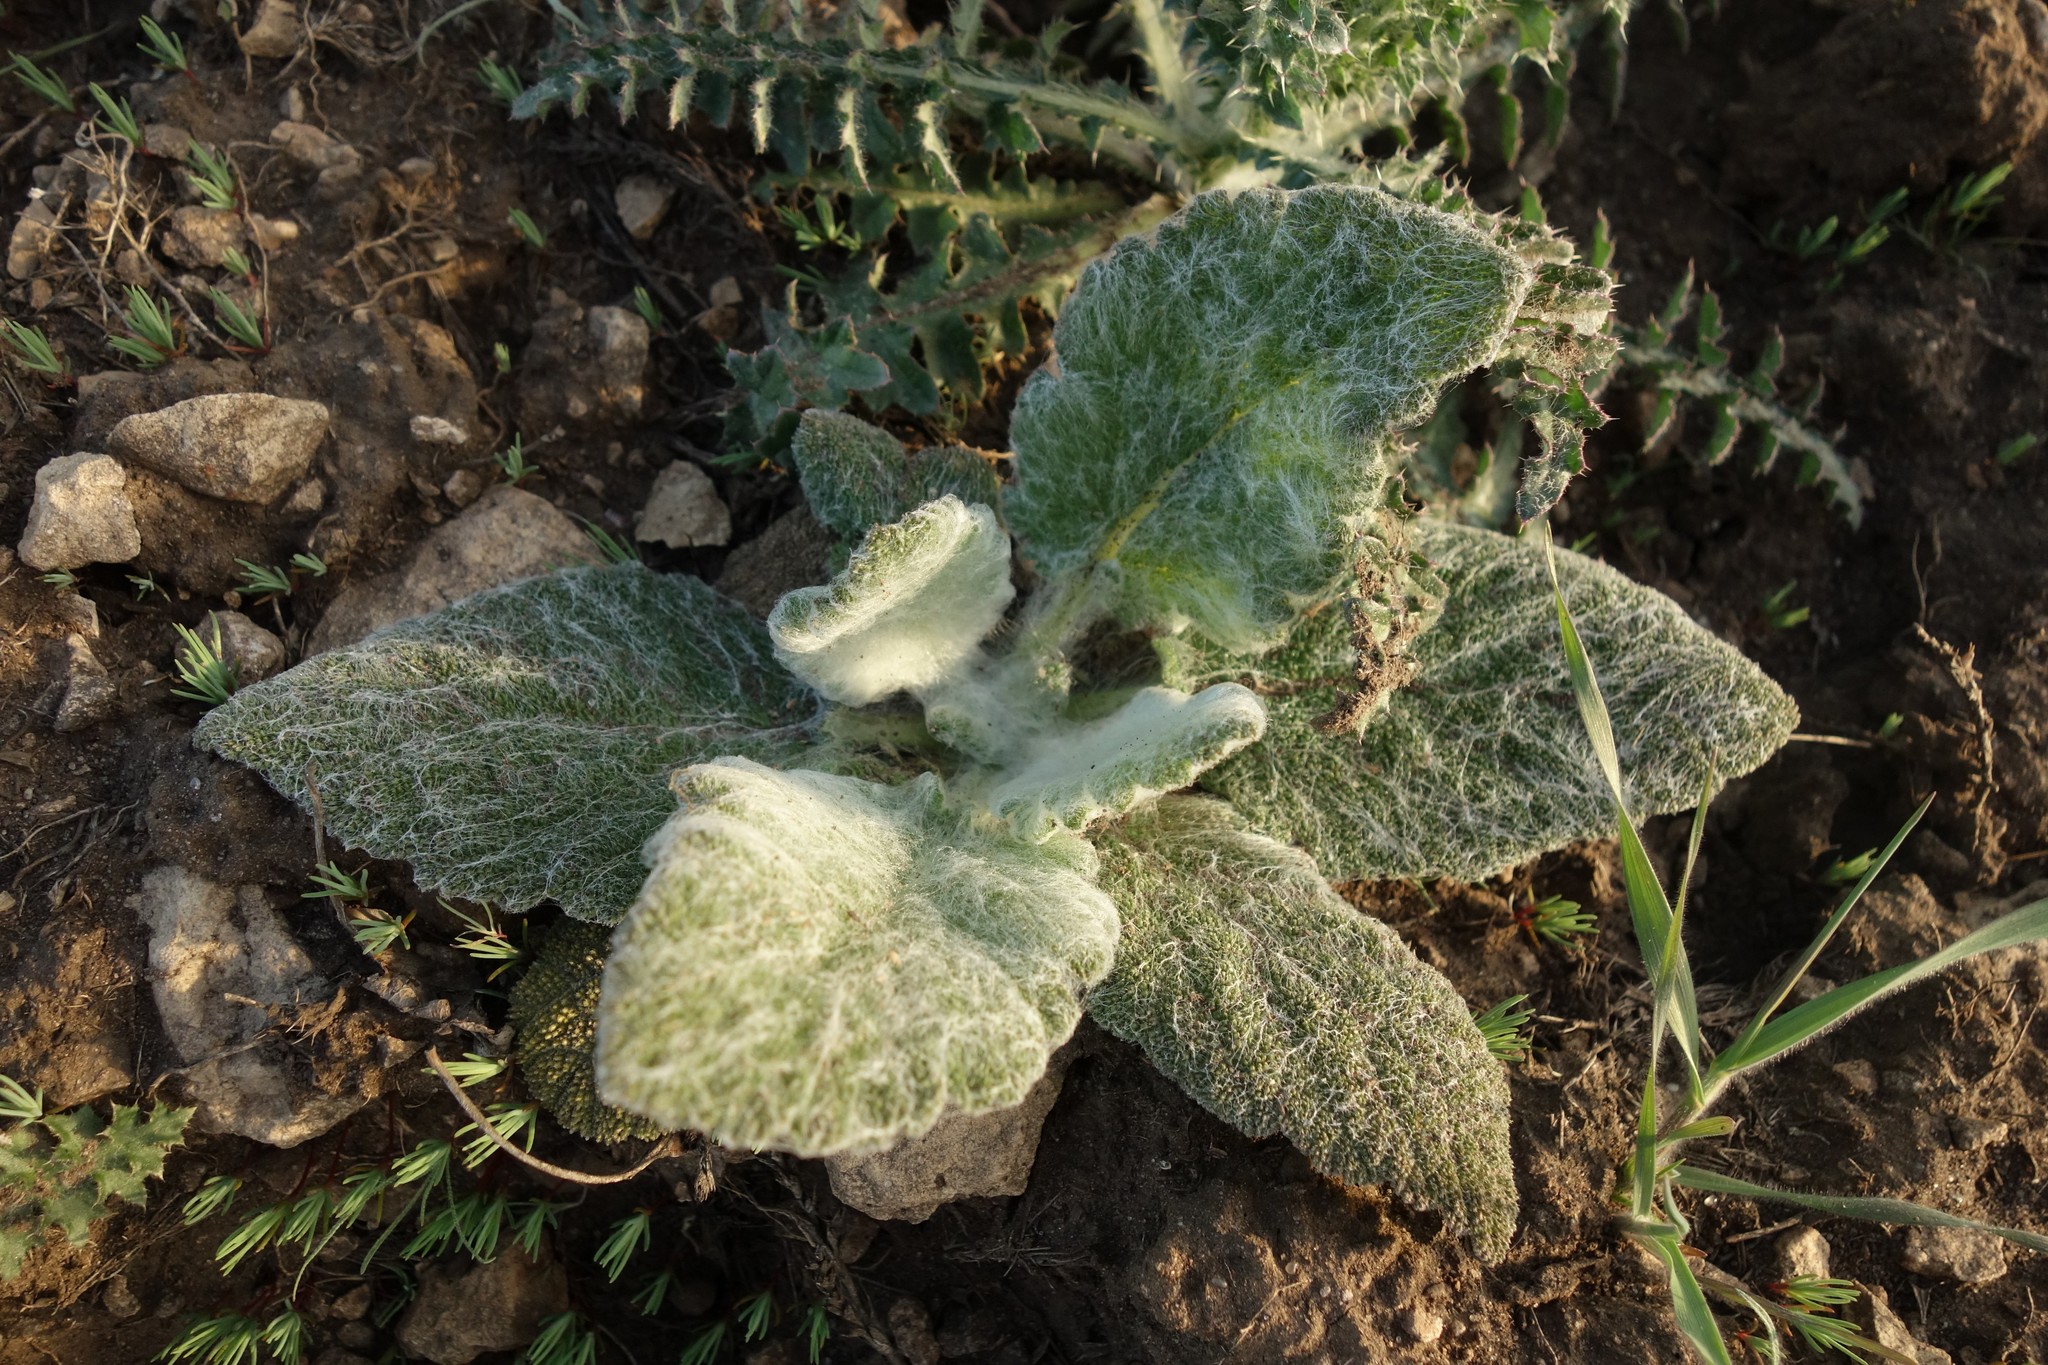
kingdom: Plantae
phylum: Tracheophyta
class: Magnoliopsida
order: Lamiales
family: Lamiaceae
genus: Salvia
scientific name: Salvia aethiopis
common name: Mediterranean sage
